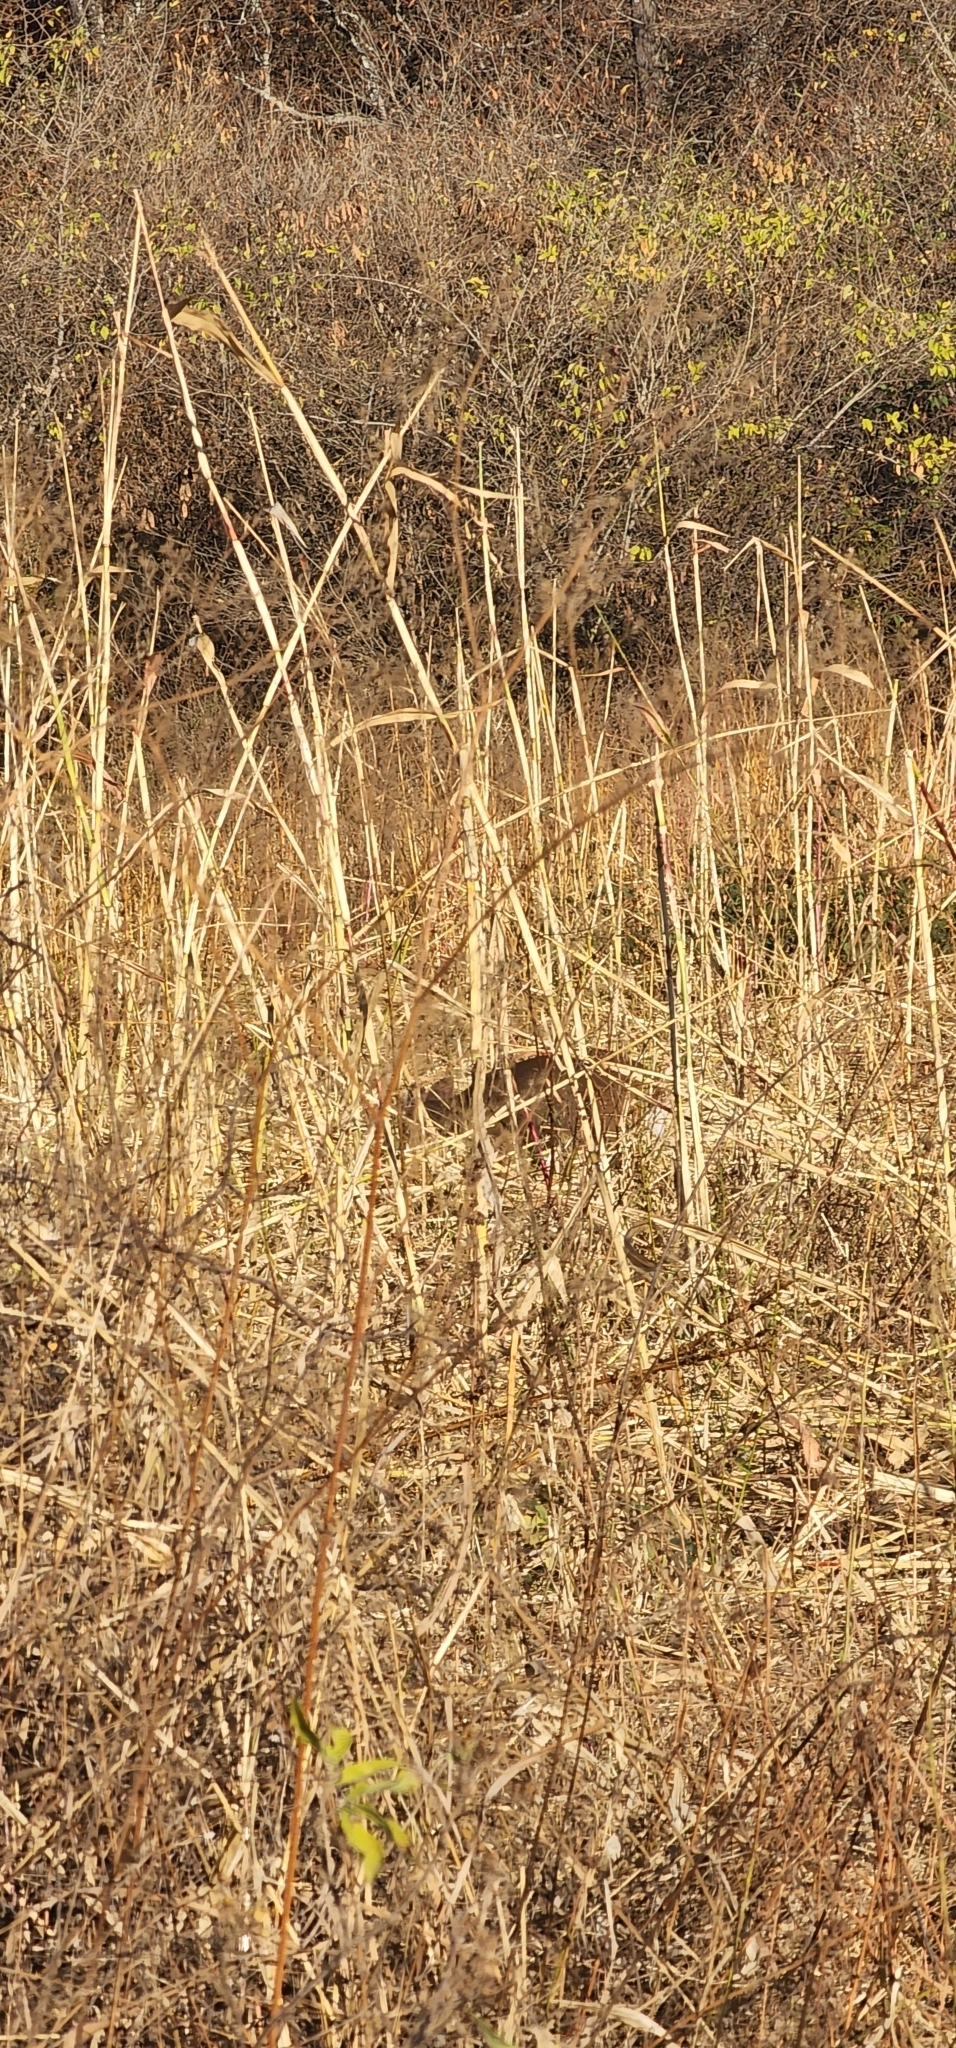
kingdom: Animalia
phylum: Chordata
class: Mammalia
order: Artiodactyla
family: Cervidae
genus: Mazama
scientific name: Mazama gouazoubira
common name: Gray brocket
